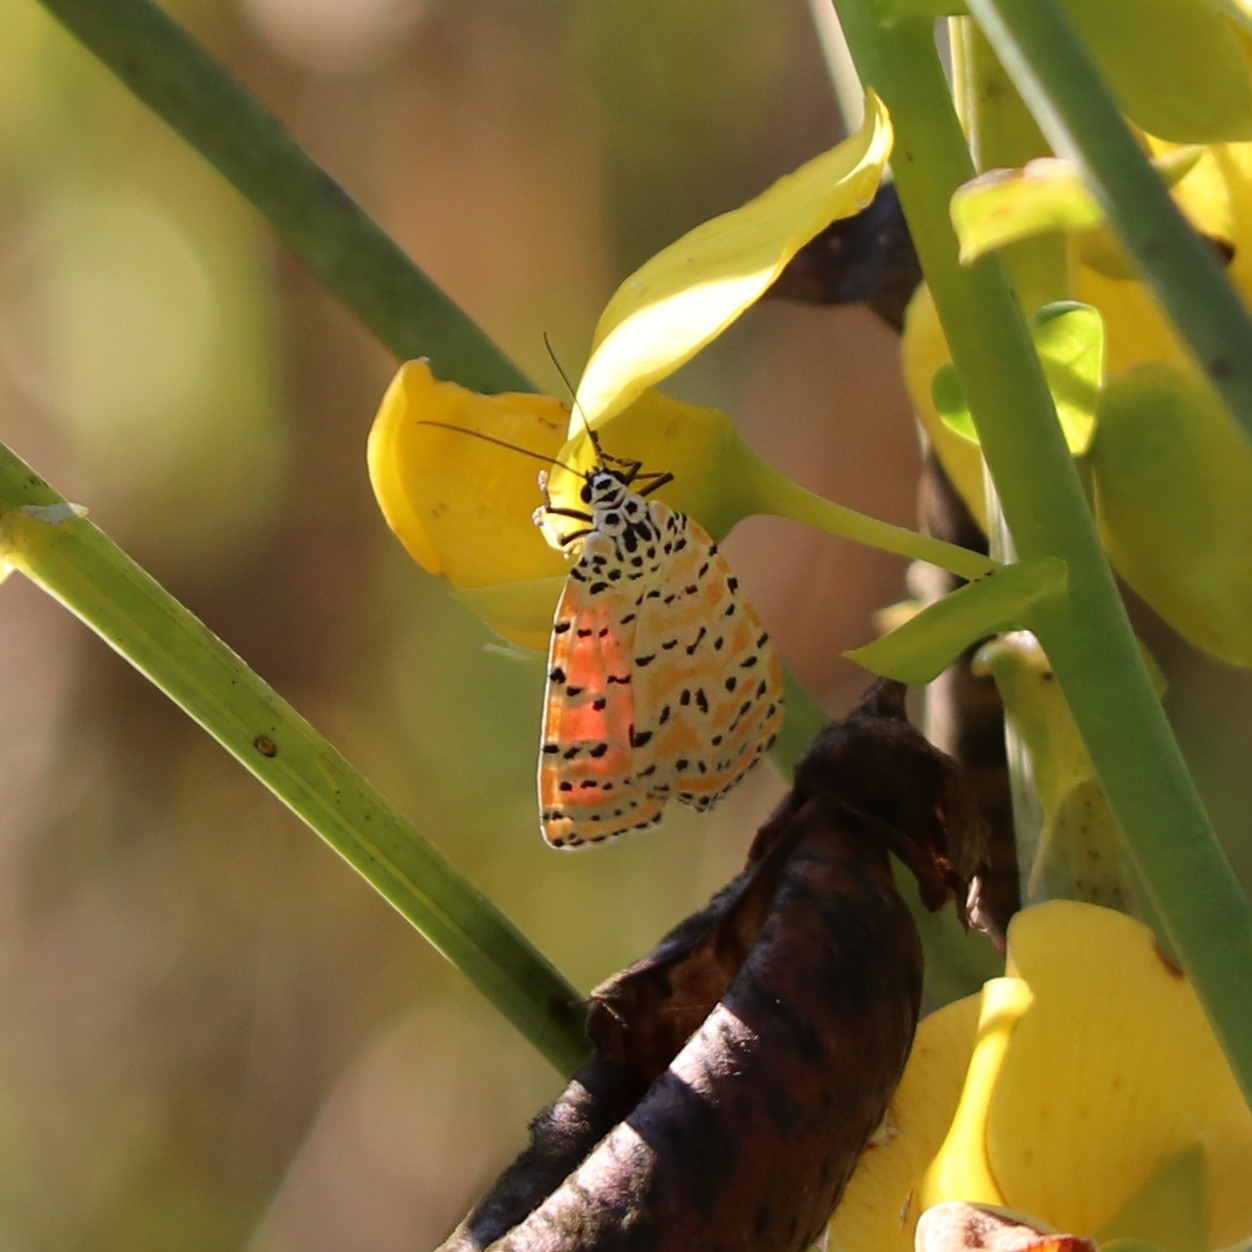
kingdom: Animalia
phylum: Arthropoda
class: Insecta
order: Lepidoptera
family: Erebidae
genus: Utetheisa
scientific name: Utetheisa ornatrix
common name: Beautiful utetheisa
